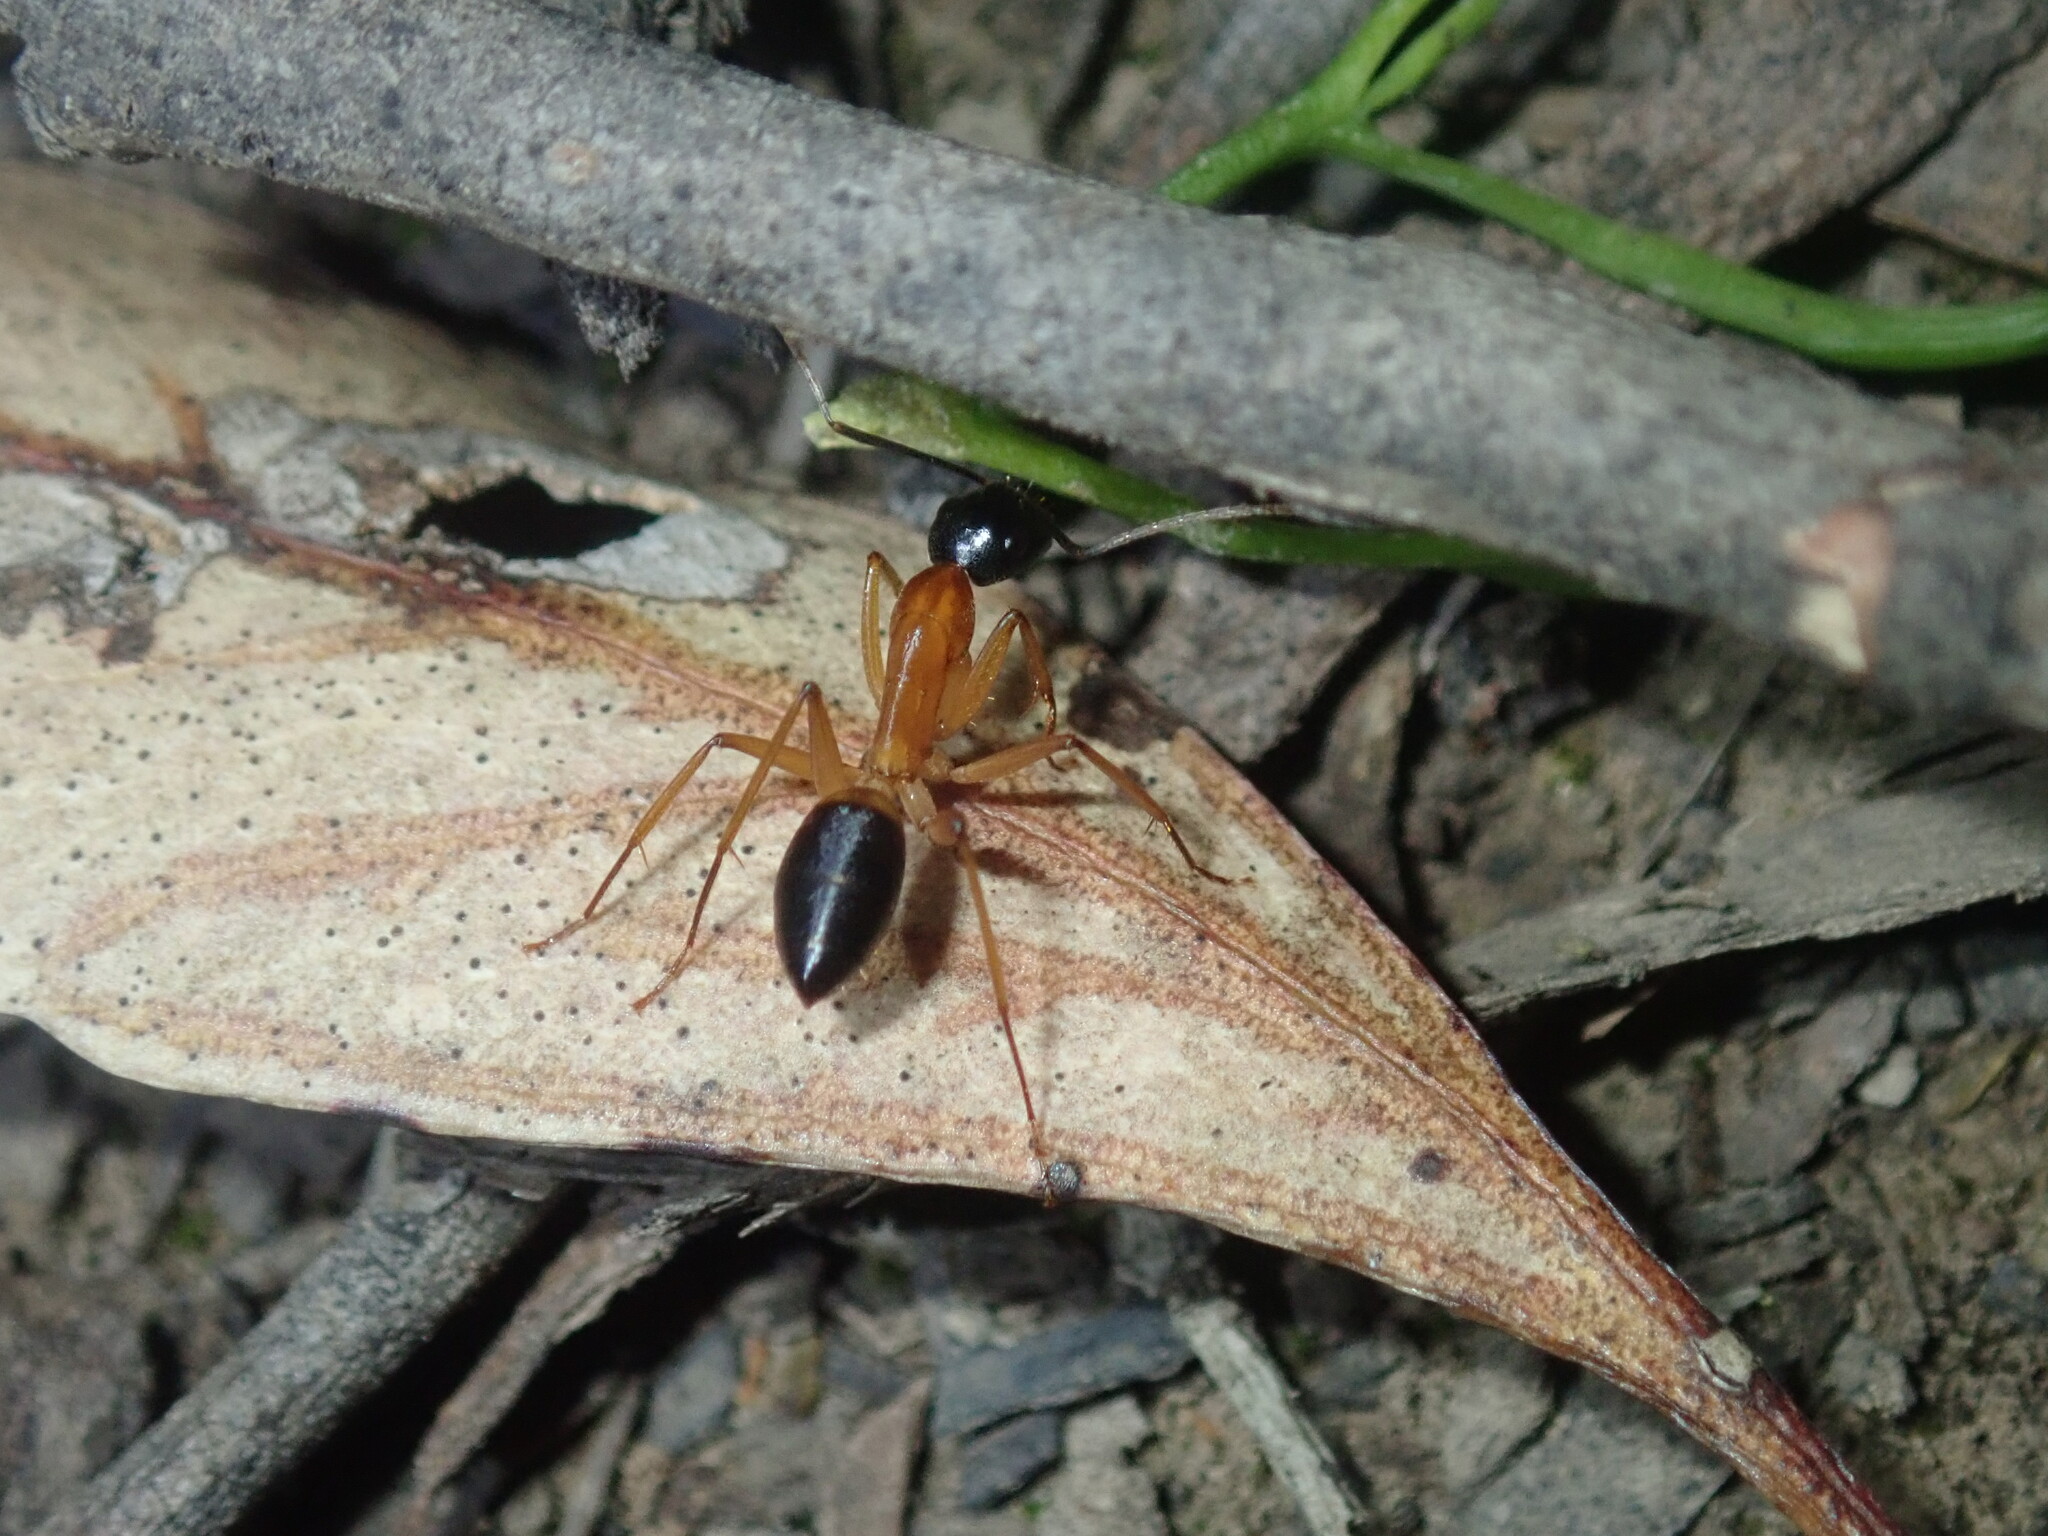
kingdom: Animalia
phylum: Arthropoda
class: Insecta
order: Hymenoptera
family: Formicidae
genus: Camponotus
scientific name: Camponotus consobrinus
